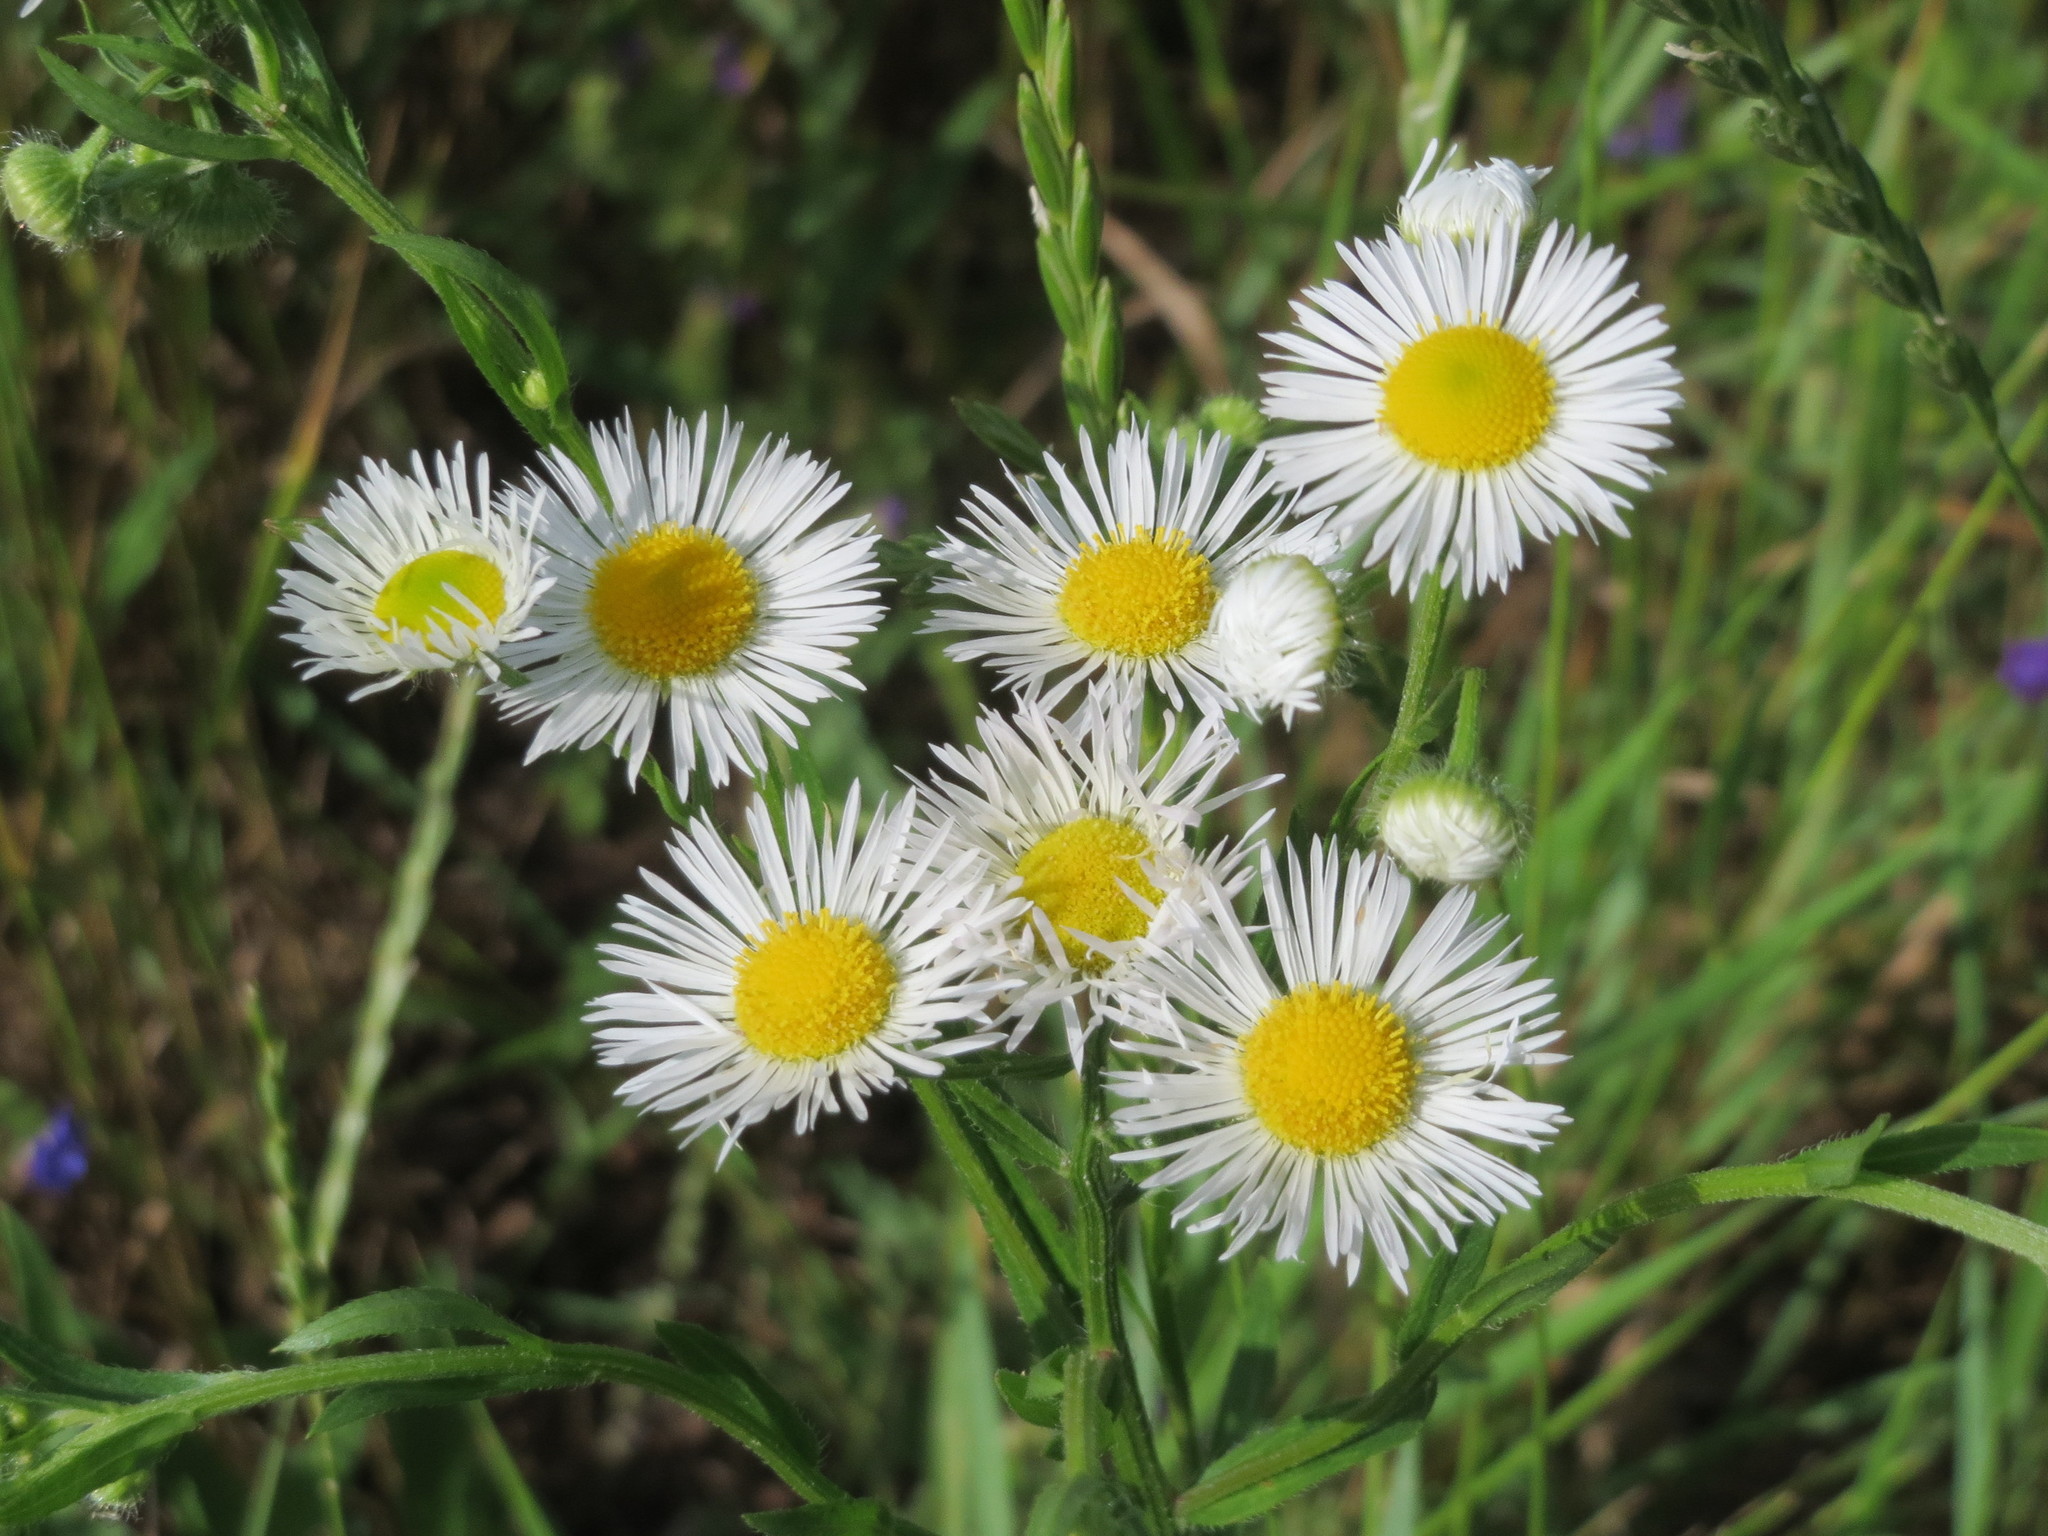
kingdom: Plantae
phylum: Tracheophyta
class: Magnoliopsida
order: Asterales
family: Asteraceae
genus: Erigeron
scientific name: Erigeron annuus
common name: Tall fleabane
